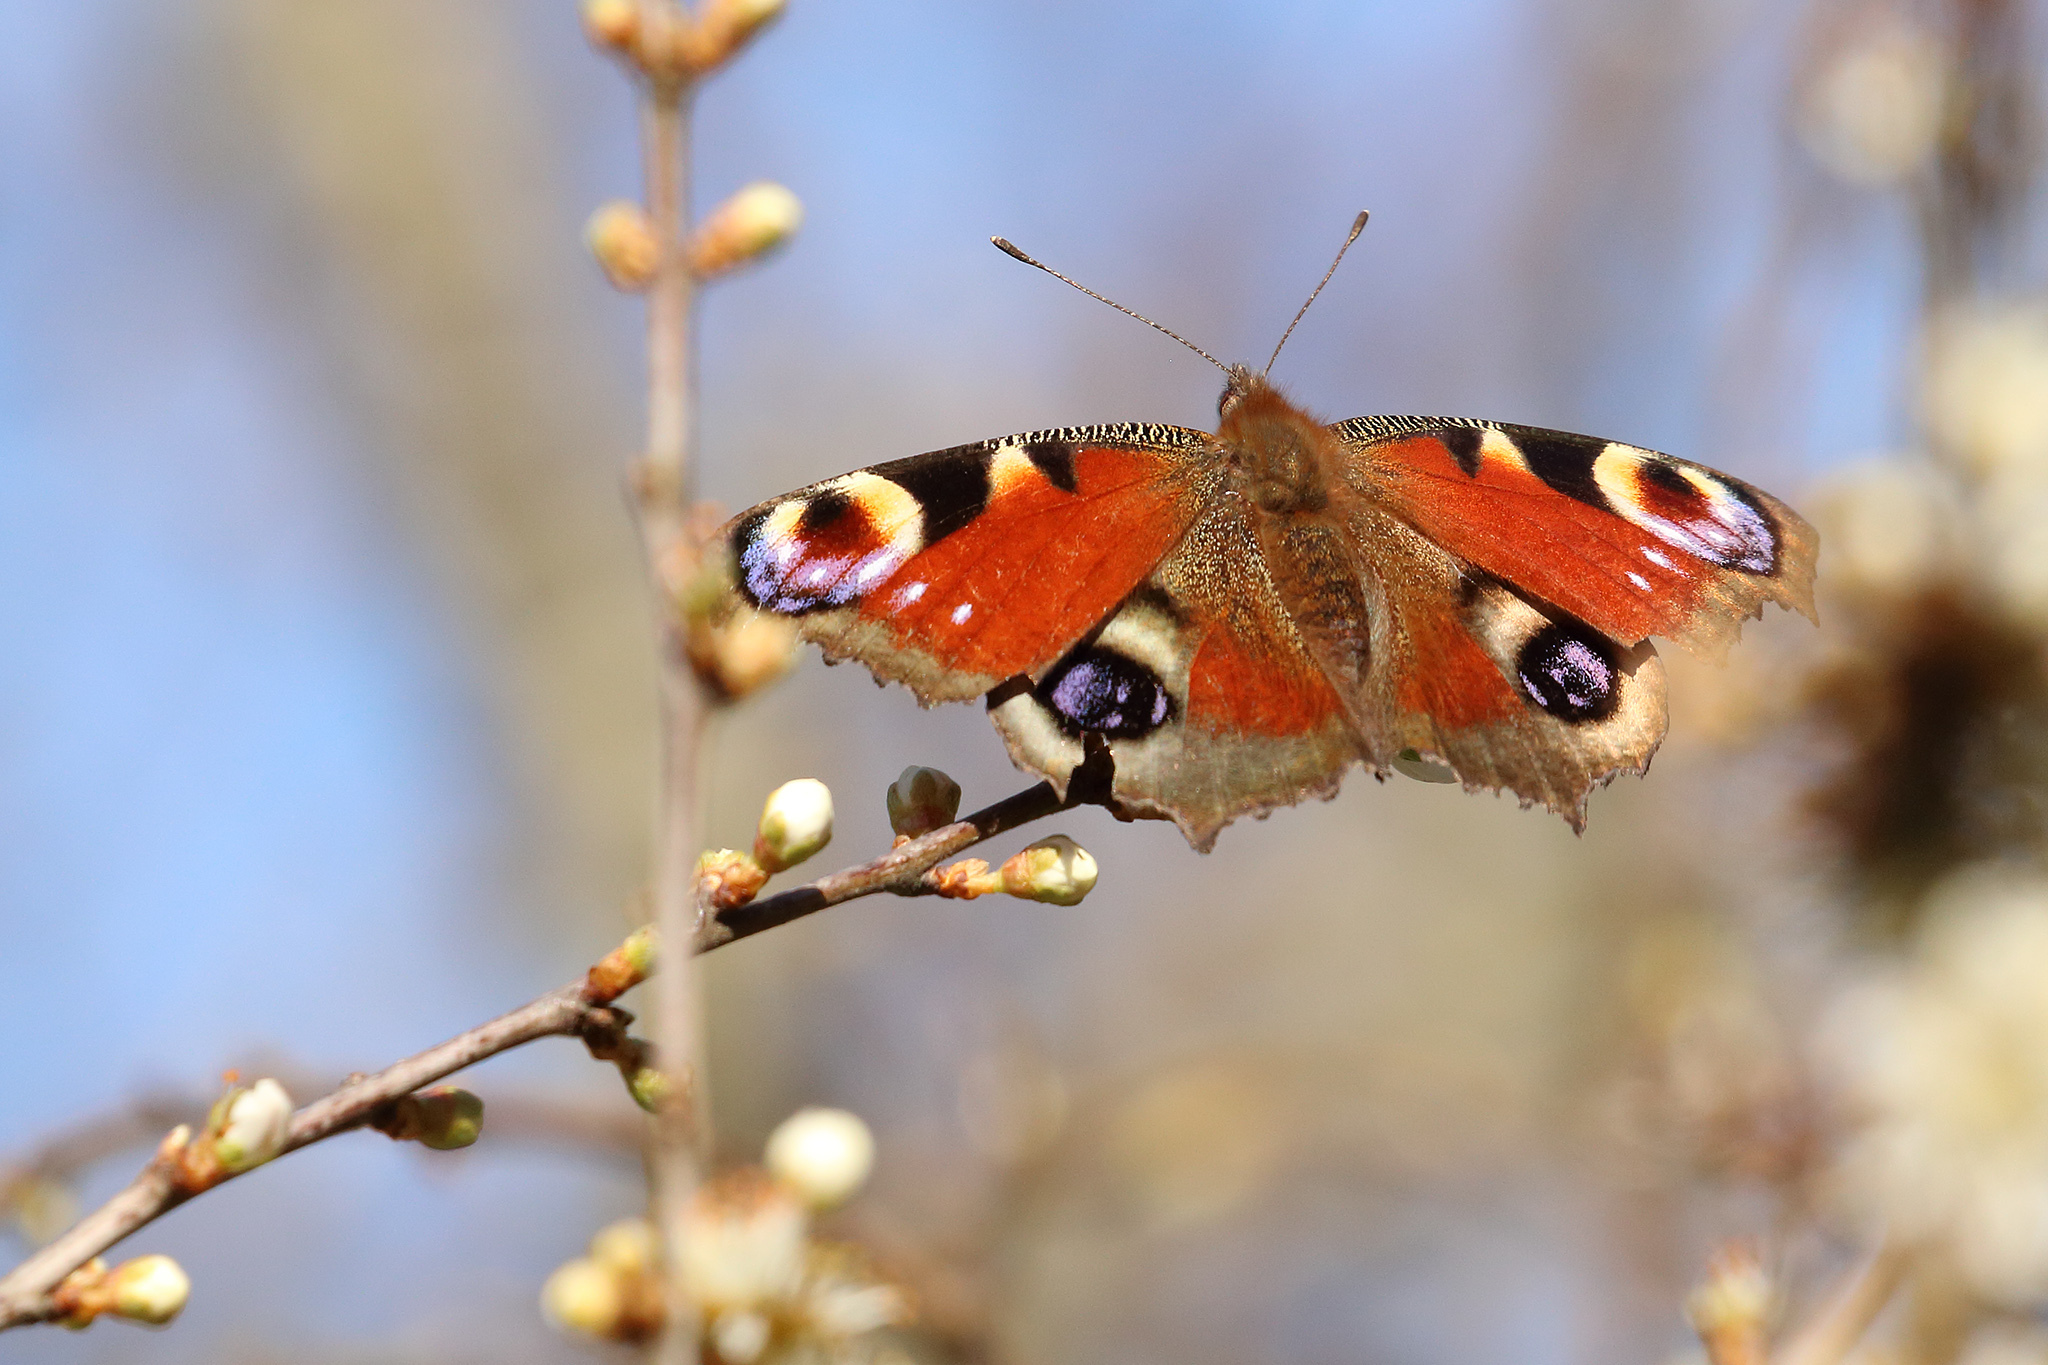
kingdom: Animalia
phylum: Arthropoda
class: Insecta
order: Lepidoptera
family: Nymphalidae
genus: Aglais
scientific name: Aglais io
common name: Peacock
